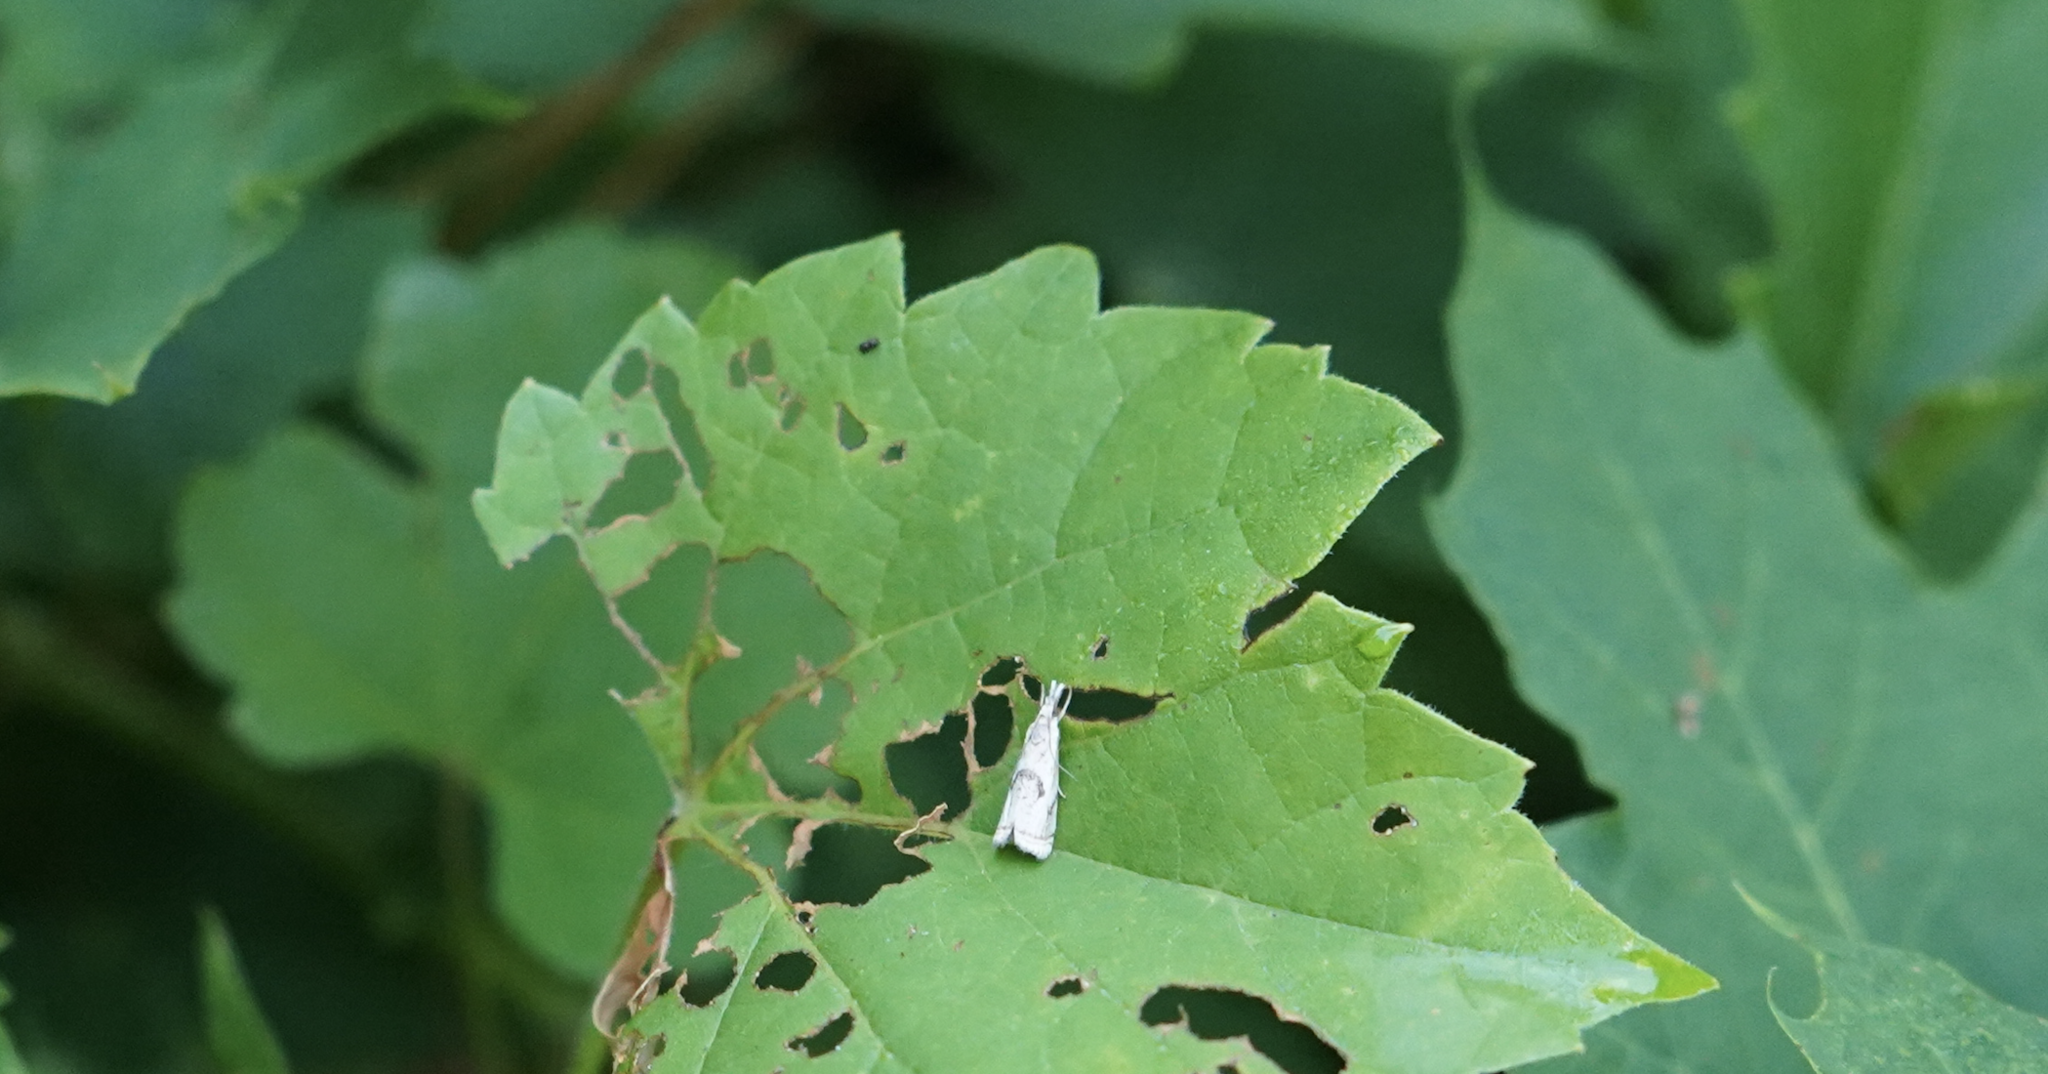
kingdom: Animalia
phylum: Arthropoda
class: Insecta
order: Lepidoptera
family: Crambidae
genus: Microcrambus
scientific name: Microcrambus elegans
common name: Elegant grass-veneer
